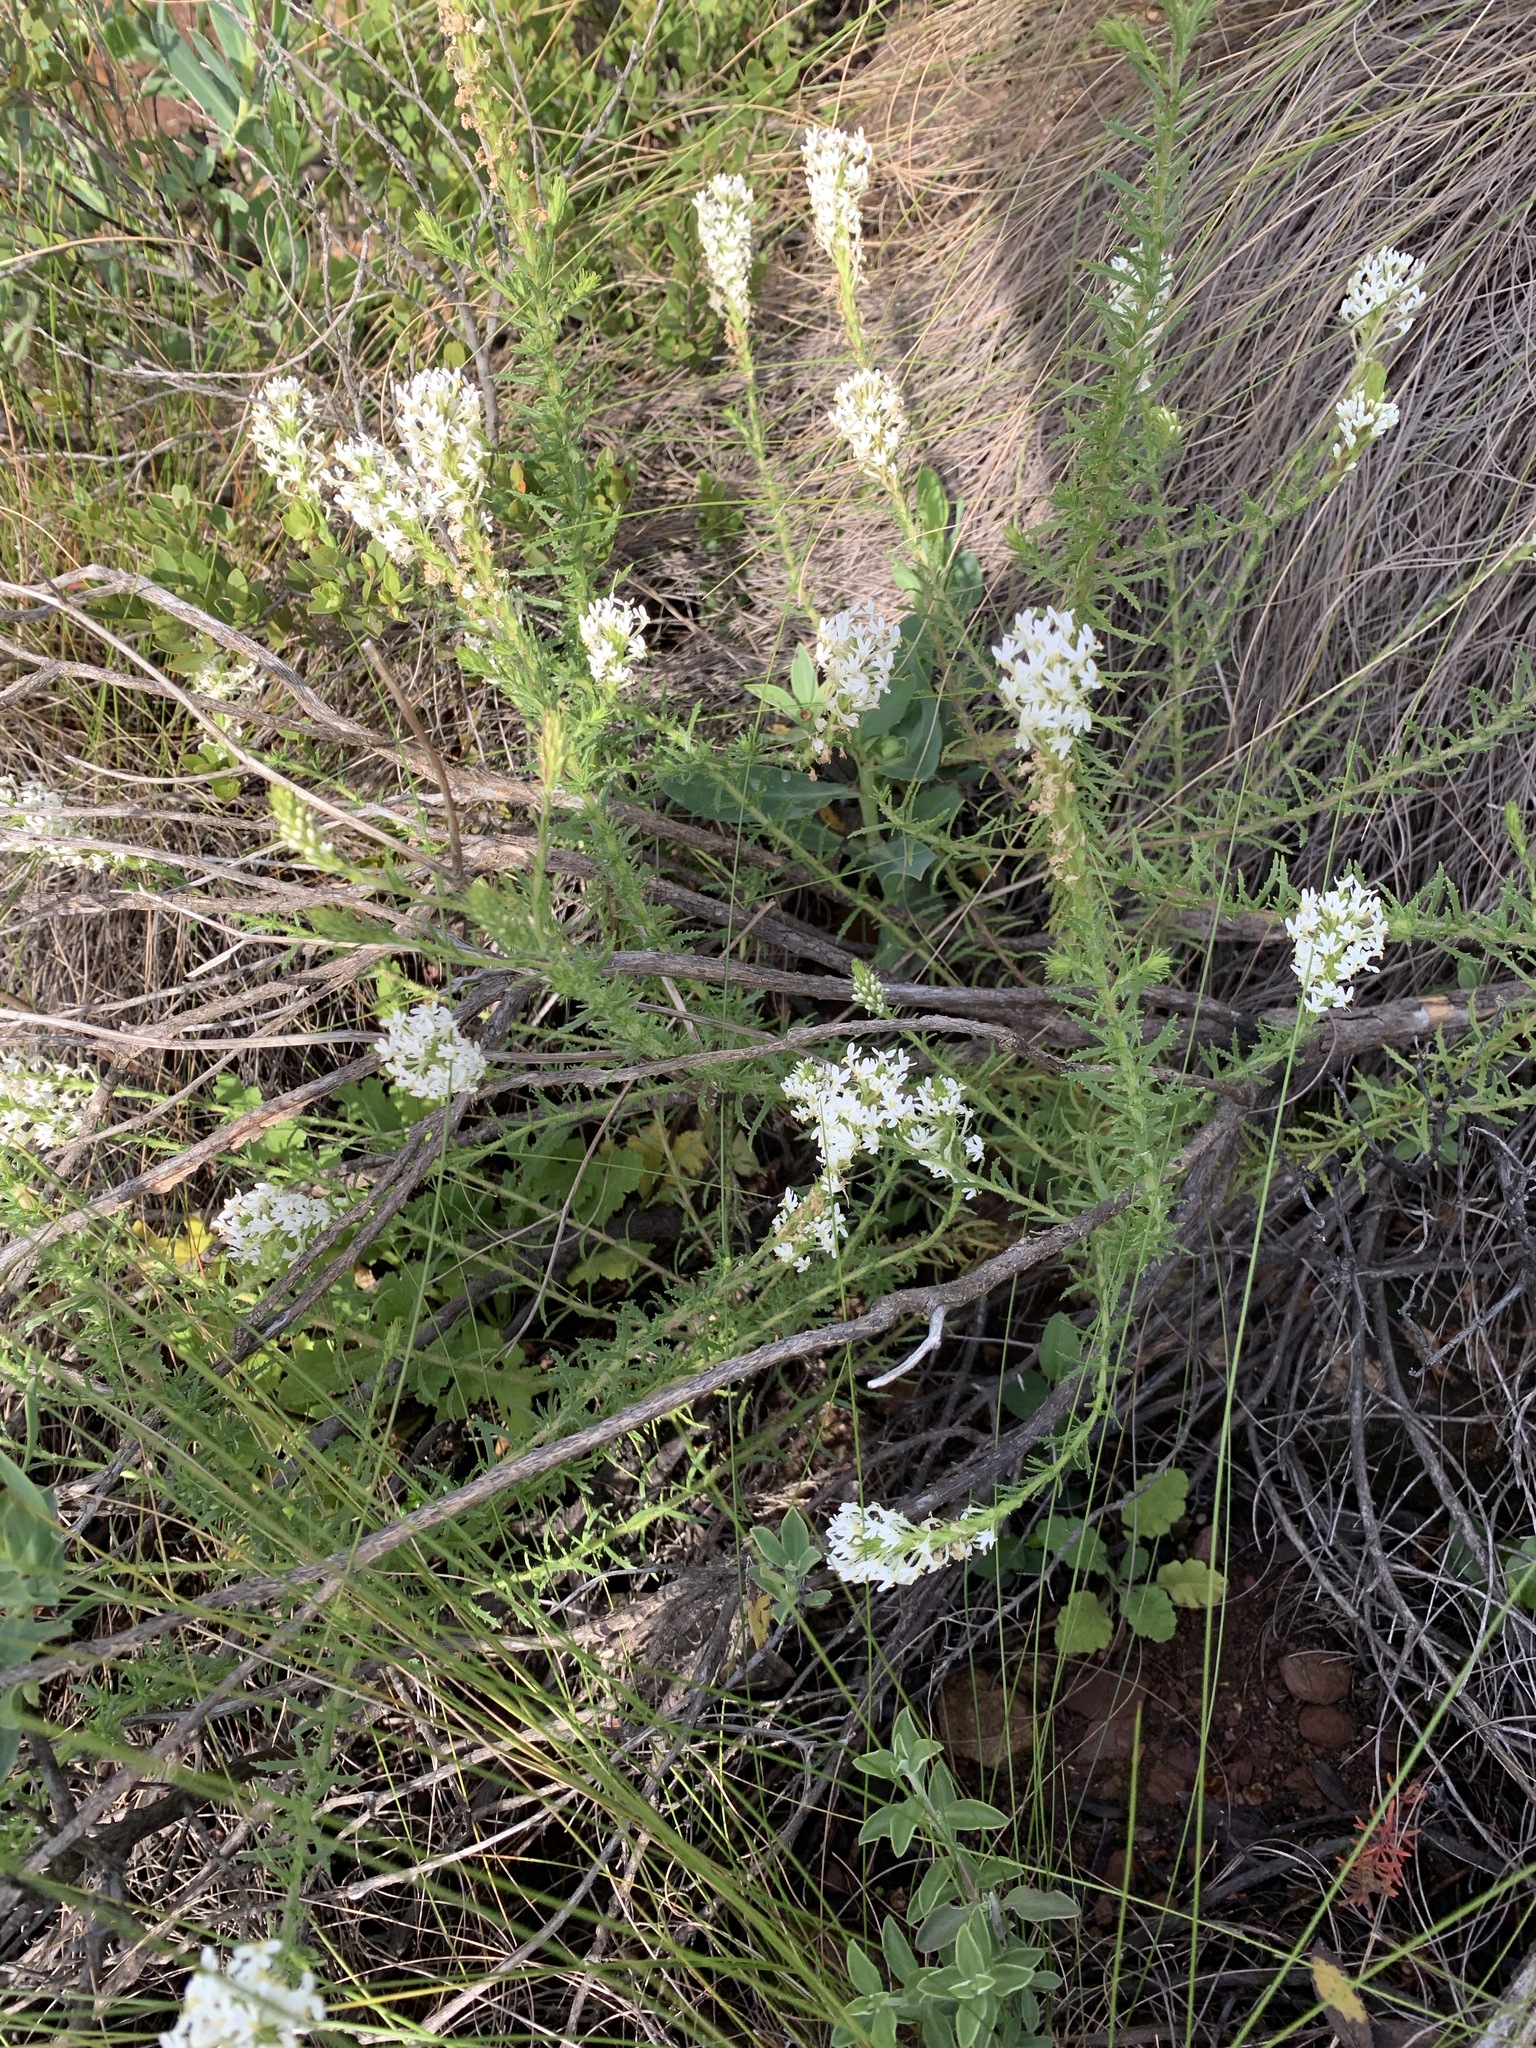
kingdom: Plantae
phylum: Tracheophyta
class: Magnoliopsida
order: Lamiales
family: Scrophulariaceae
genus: Dischisma
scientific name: Dischisma ciliatum
